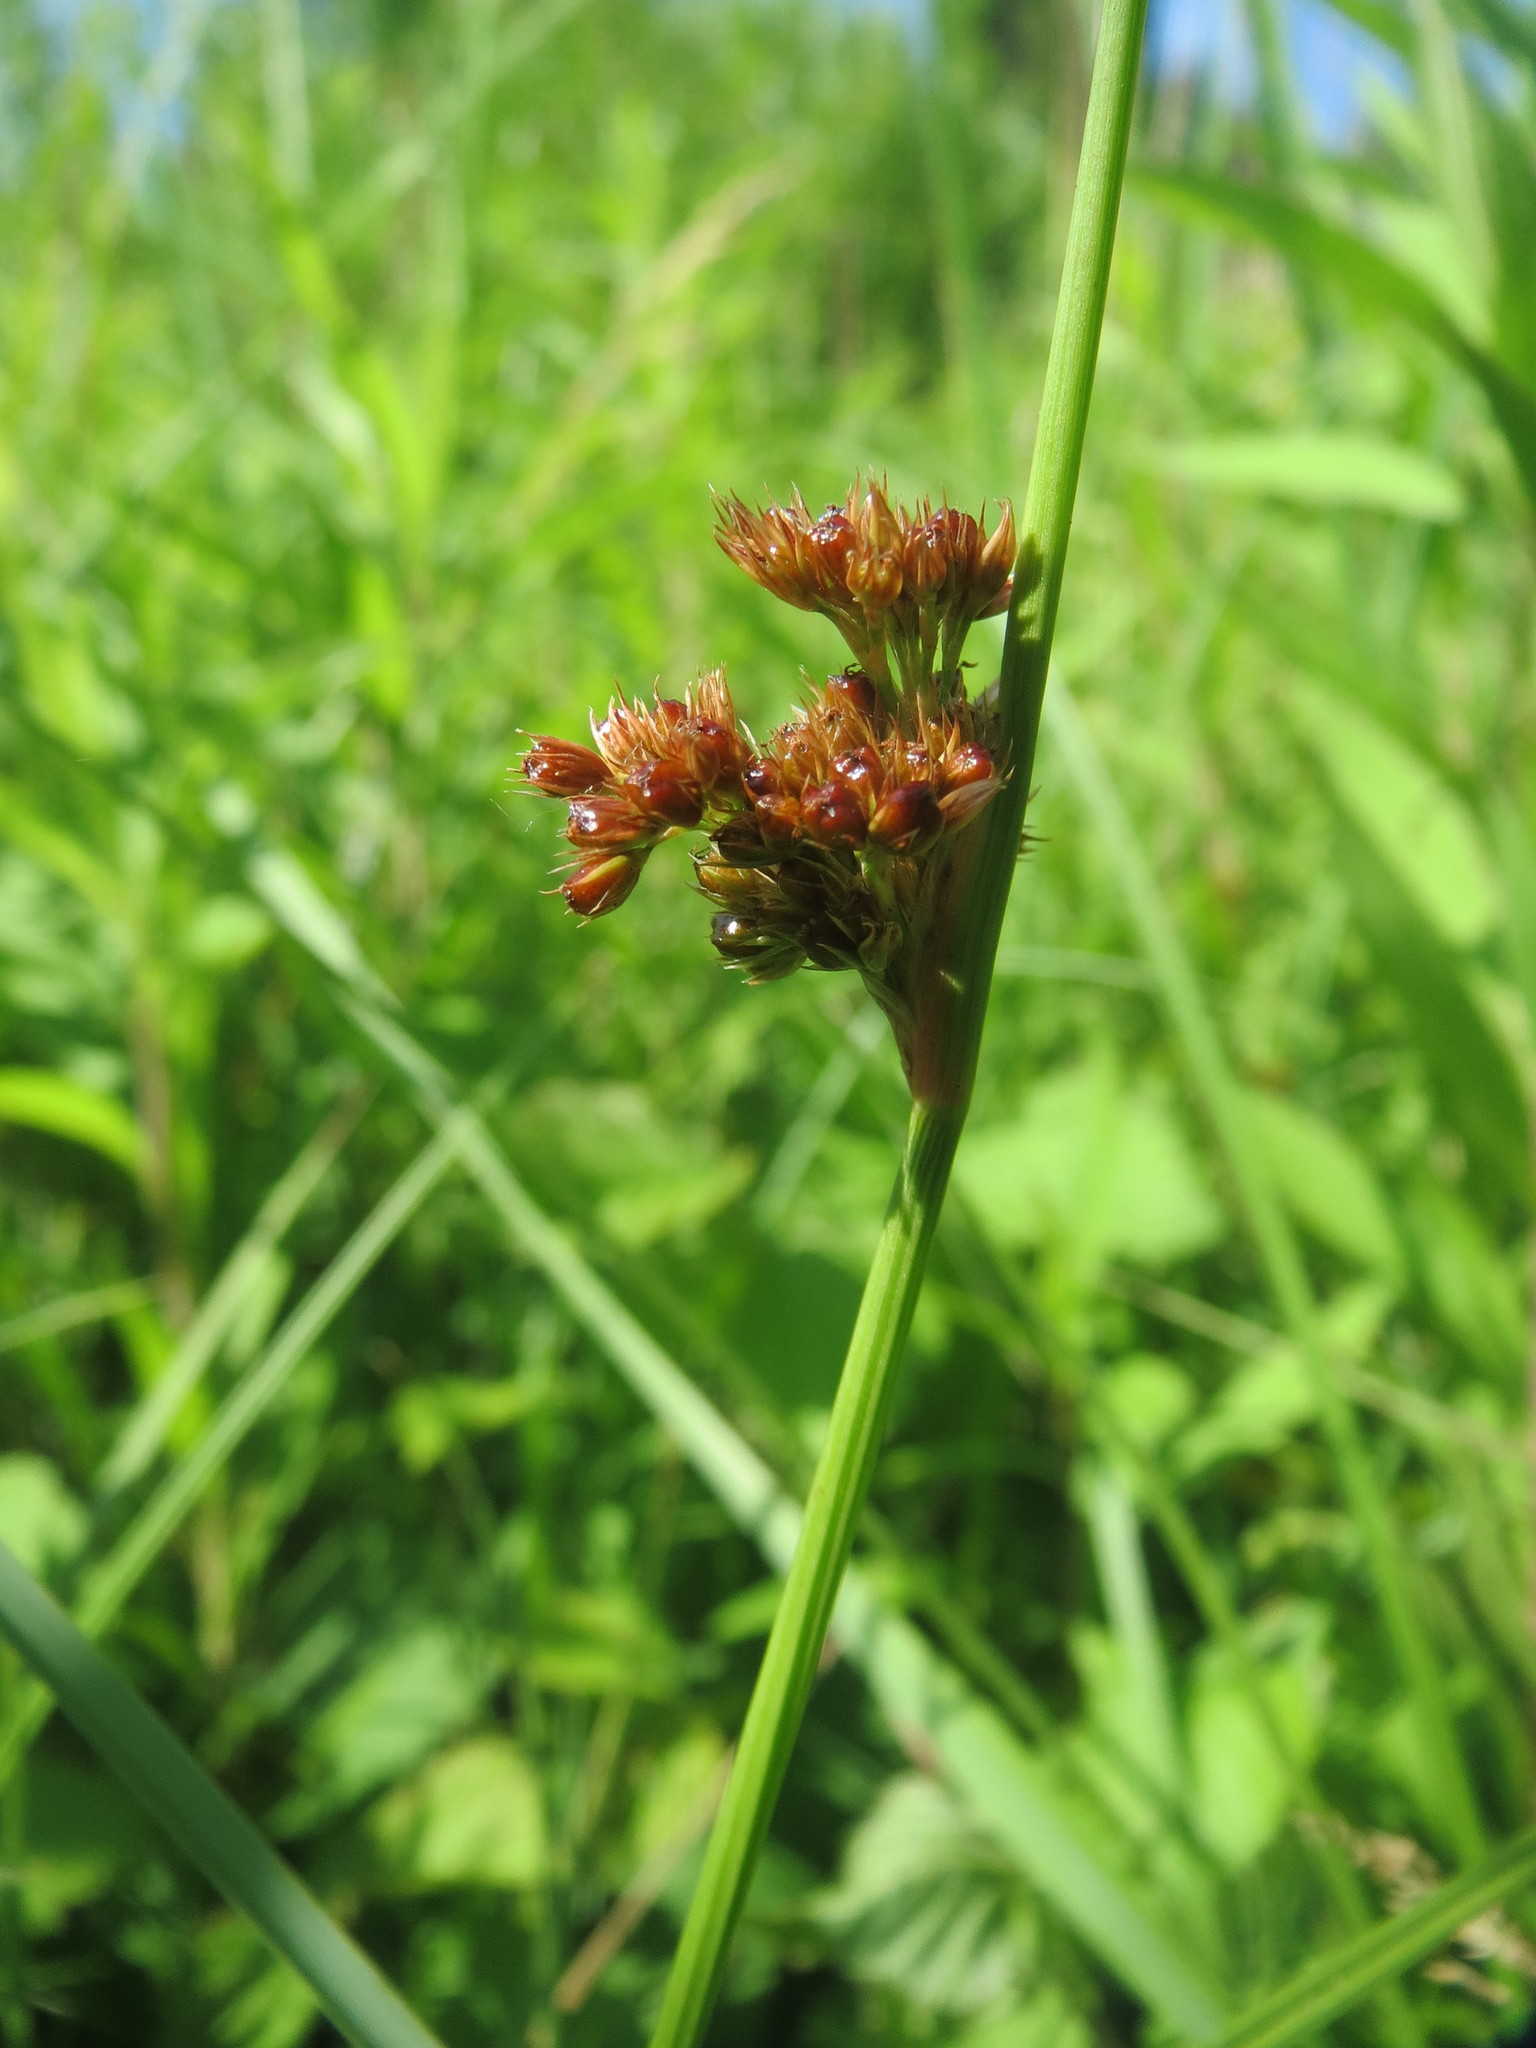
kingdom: Plantae
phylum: Tracheophyta
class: Liliopsida
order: Poales
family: Juncaceae
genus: Juncus
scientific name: Juncus conglomeratus
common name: Compact rush
